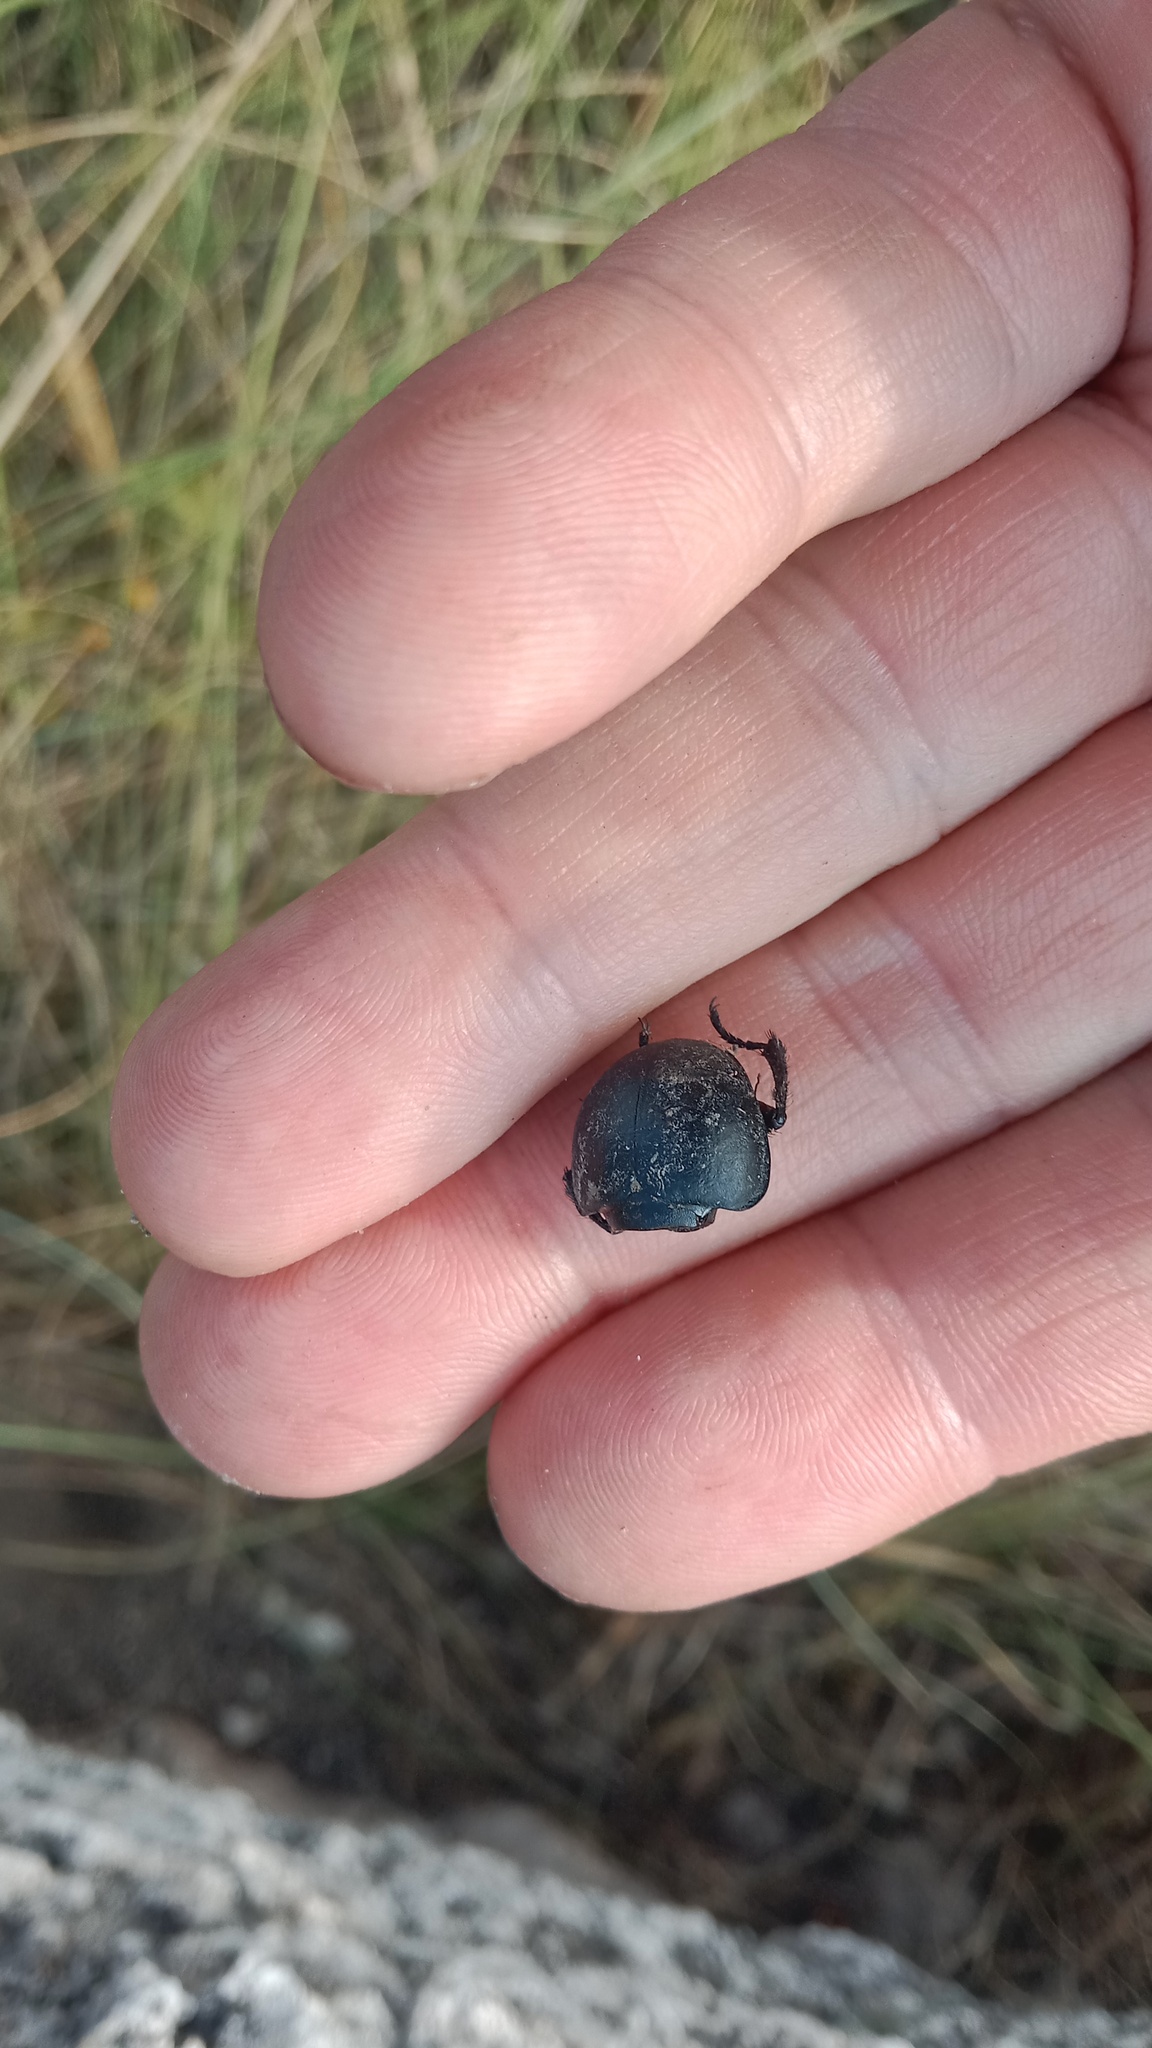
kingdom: Animalia
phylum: Arthropoda
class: Insecta
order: Coleoptera
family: Geotrupidae
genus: Lethrus
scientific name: Lethrus apterus
